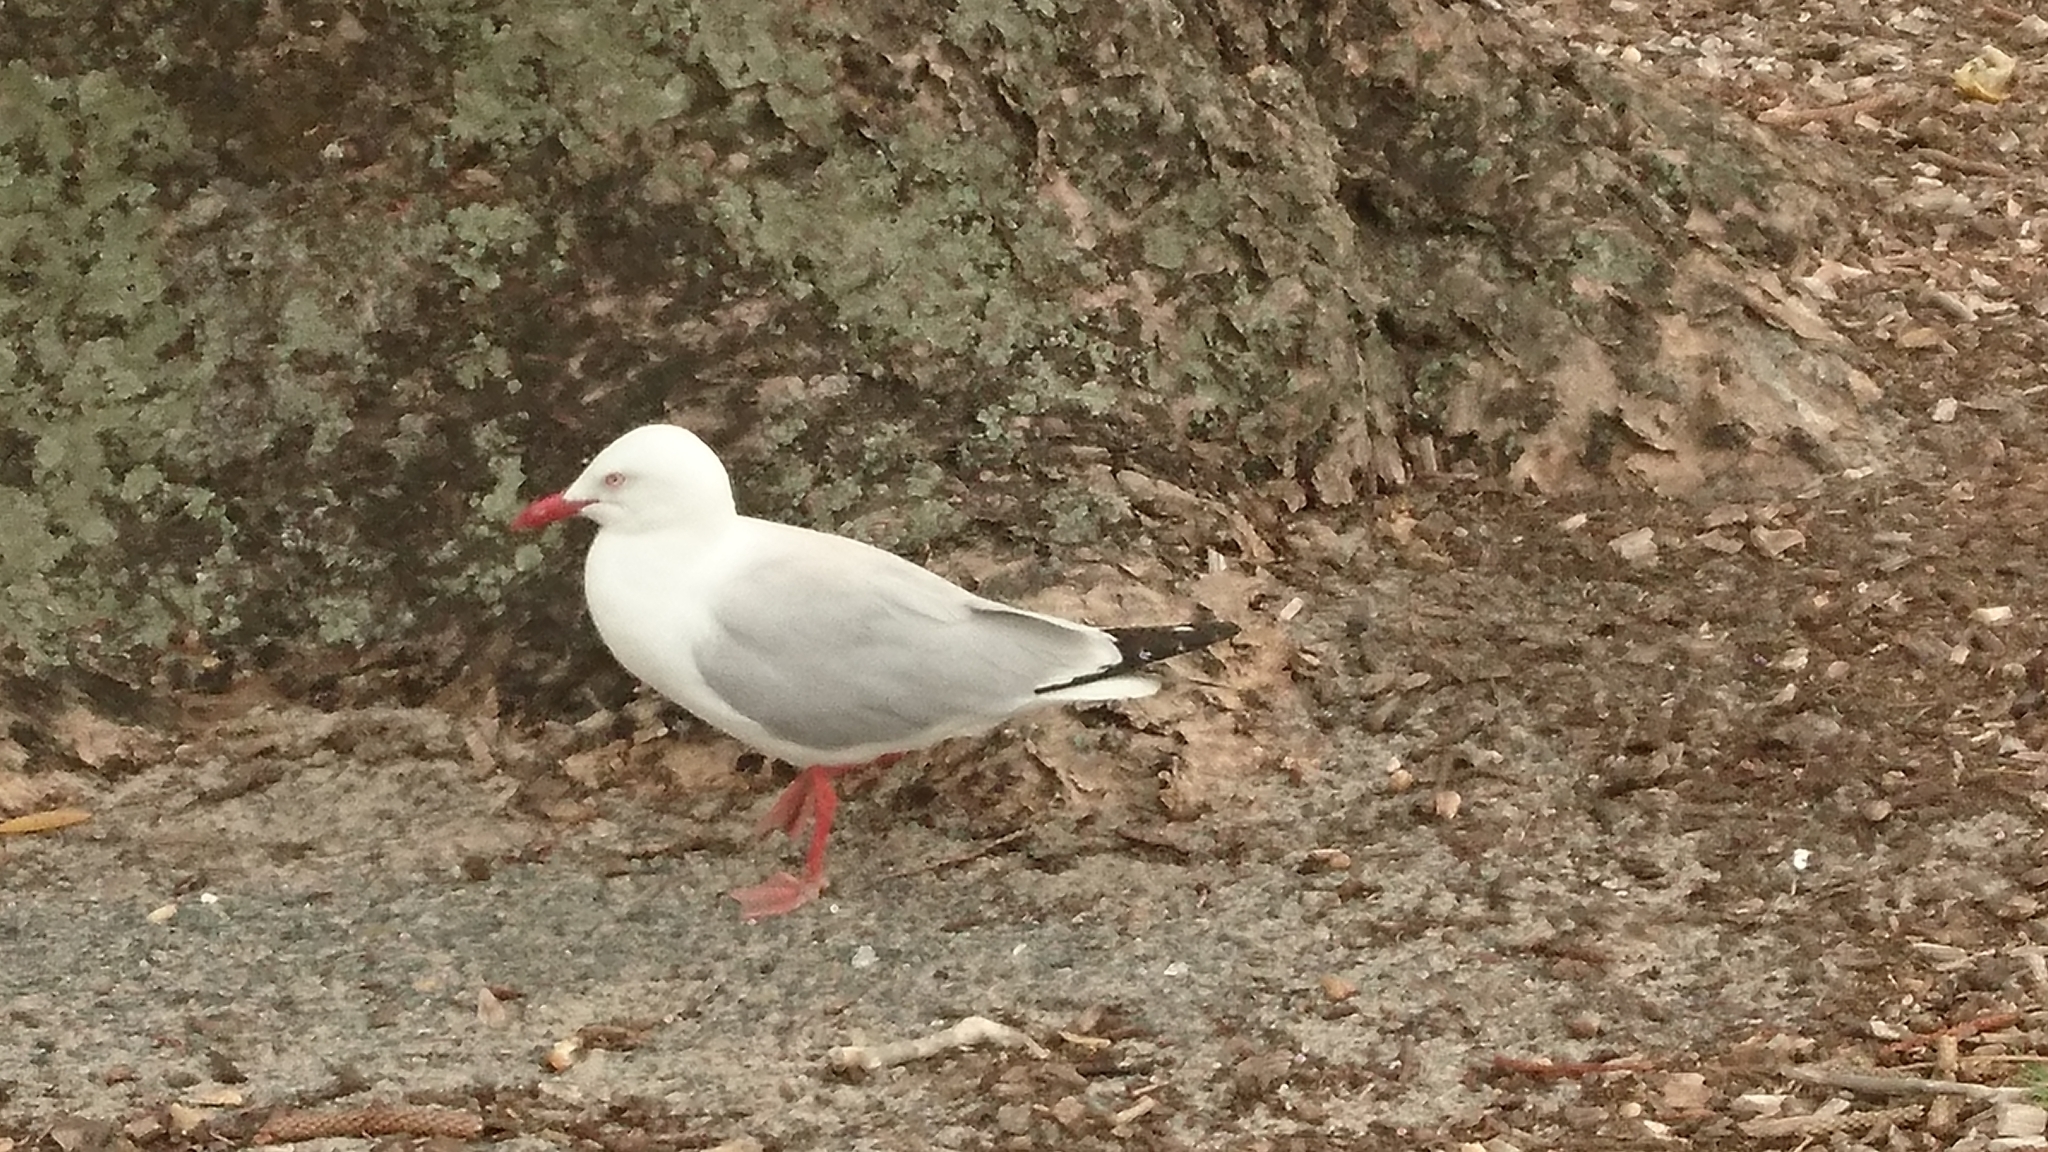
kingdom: Animalia
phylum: Chordata
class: Aves
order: Charadriiformes
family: Laridae
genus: Chroicocephalus
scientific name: Chroicocephalus novaehollandiae
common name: Silver gull
